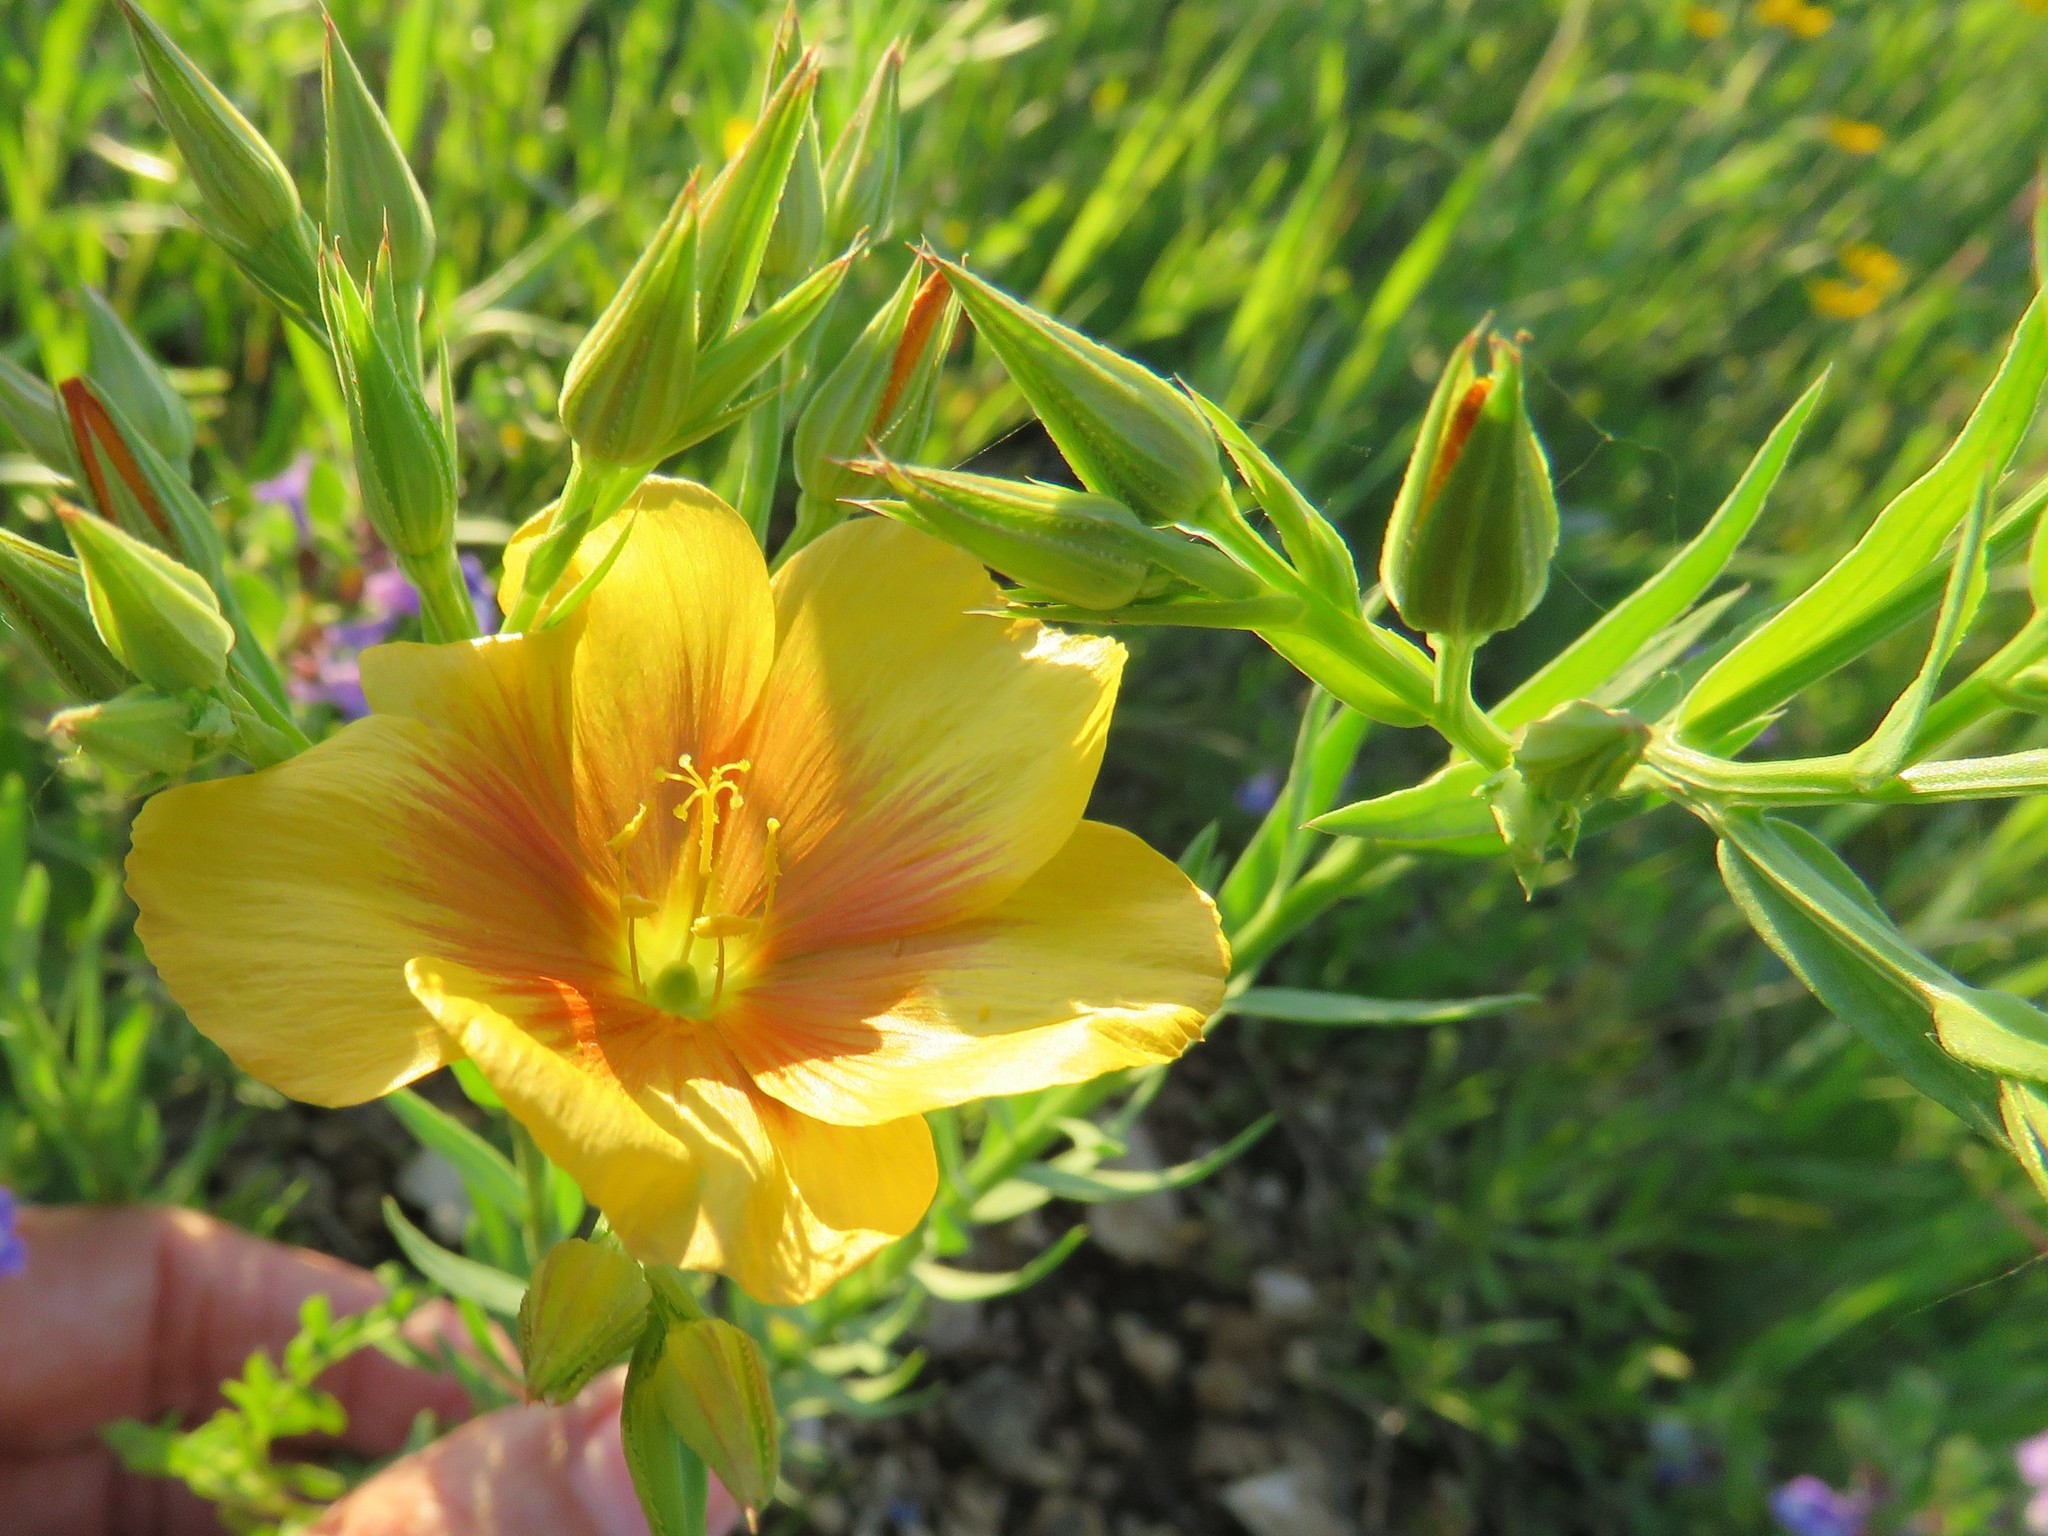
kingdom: Plantae
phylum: Tracheophyta
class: Magnoliopsida
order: Malpighiales
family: Linaceae
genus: Linum
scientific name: Linum berlandieri
